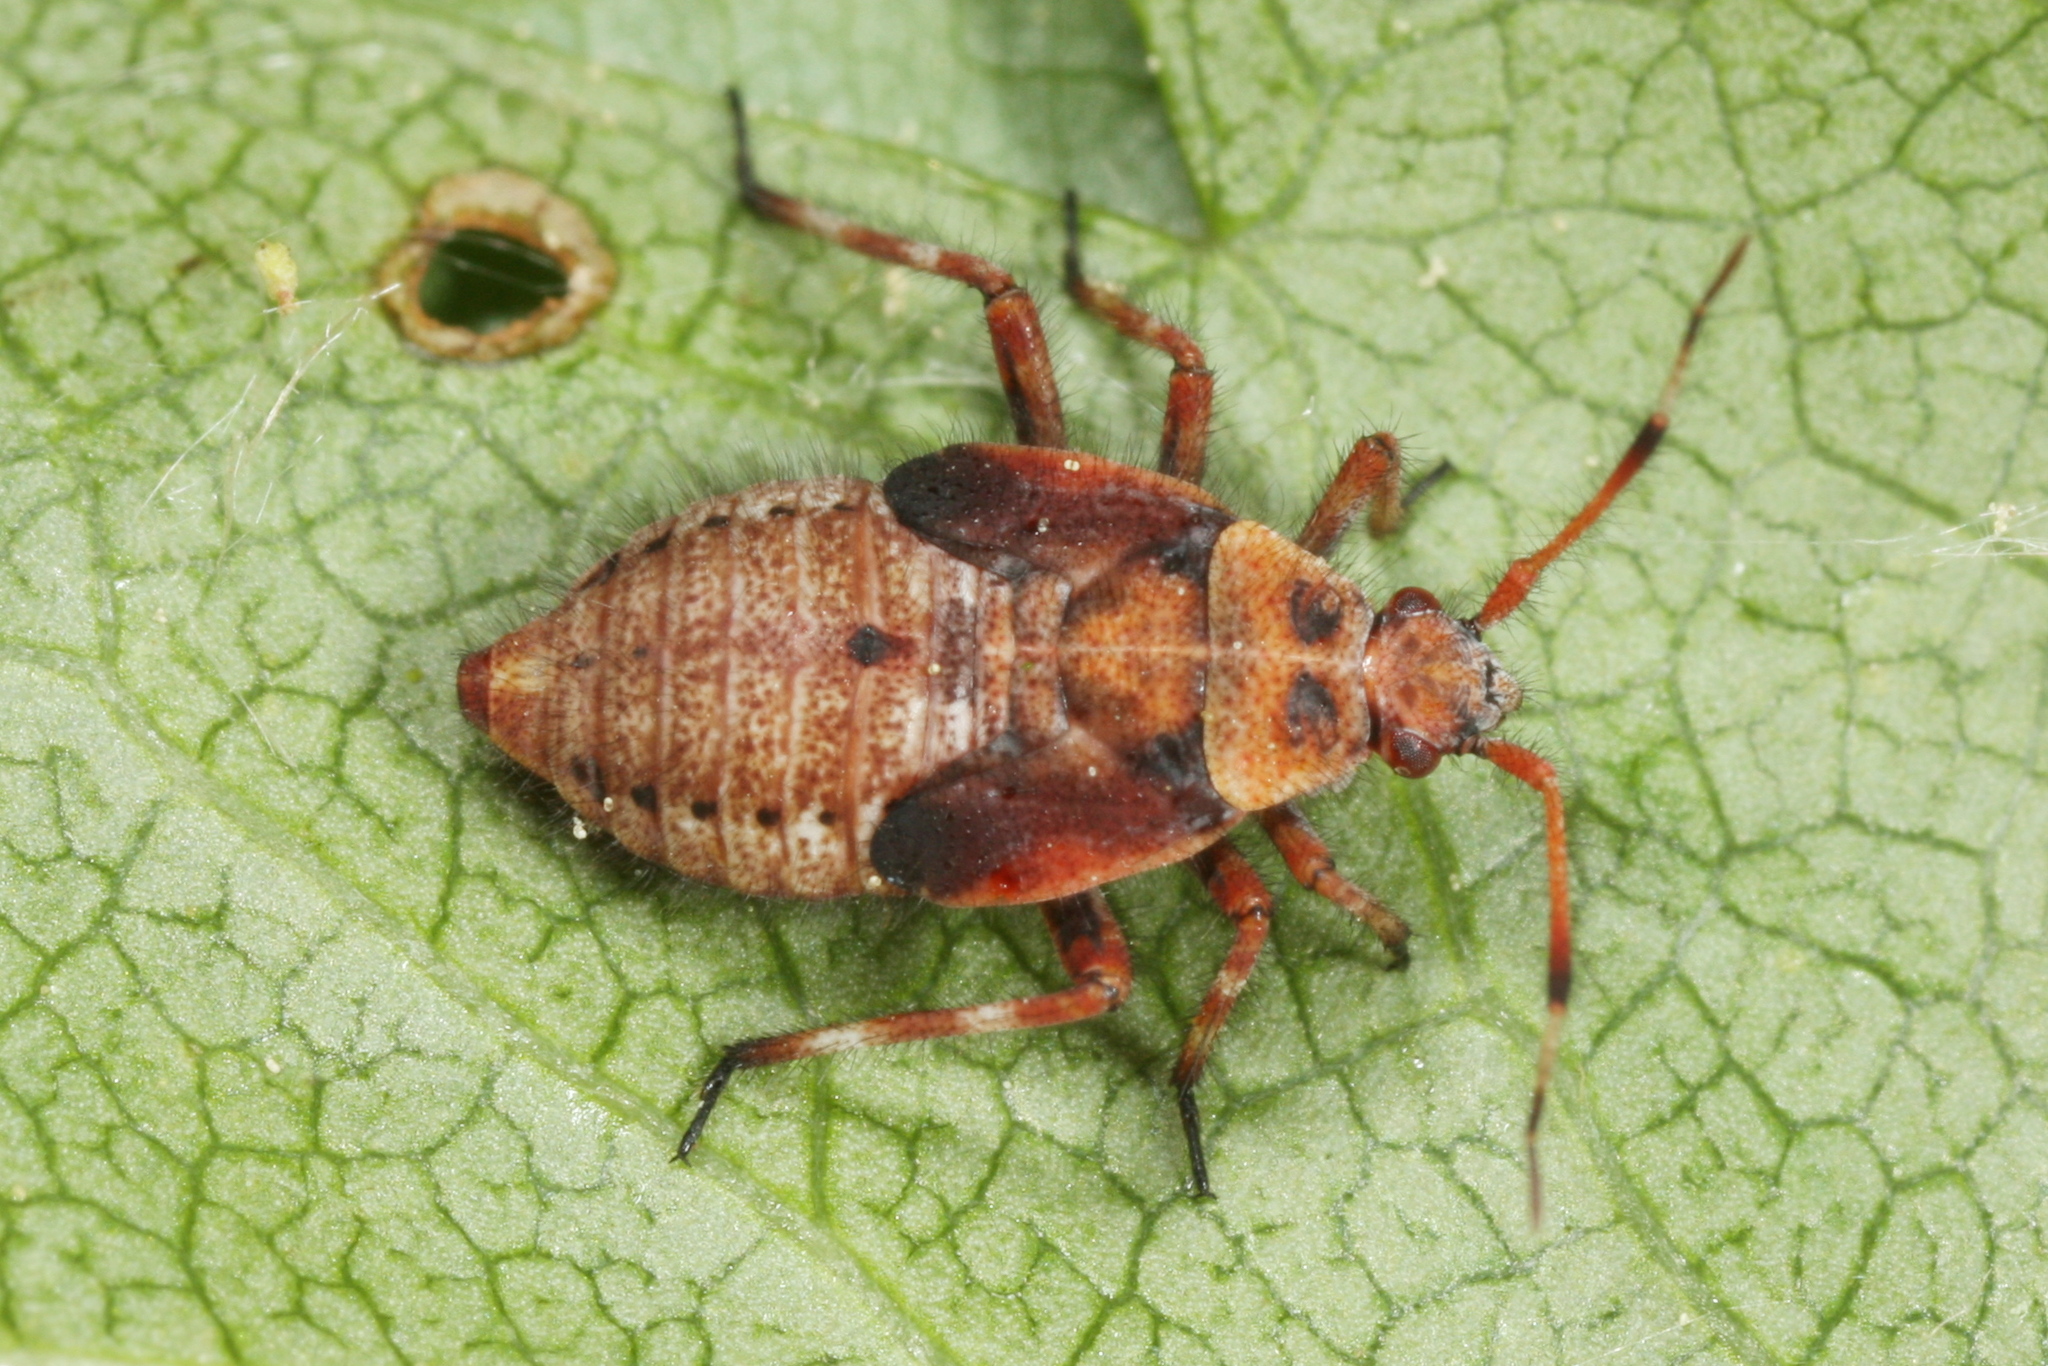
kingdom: Animalia
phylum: Arthropoda
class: Insecta
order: Hemiptera
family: Miridae
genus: Deraeocoris
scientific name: Deraeocoris olivaceus
